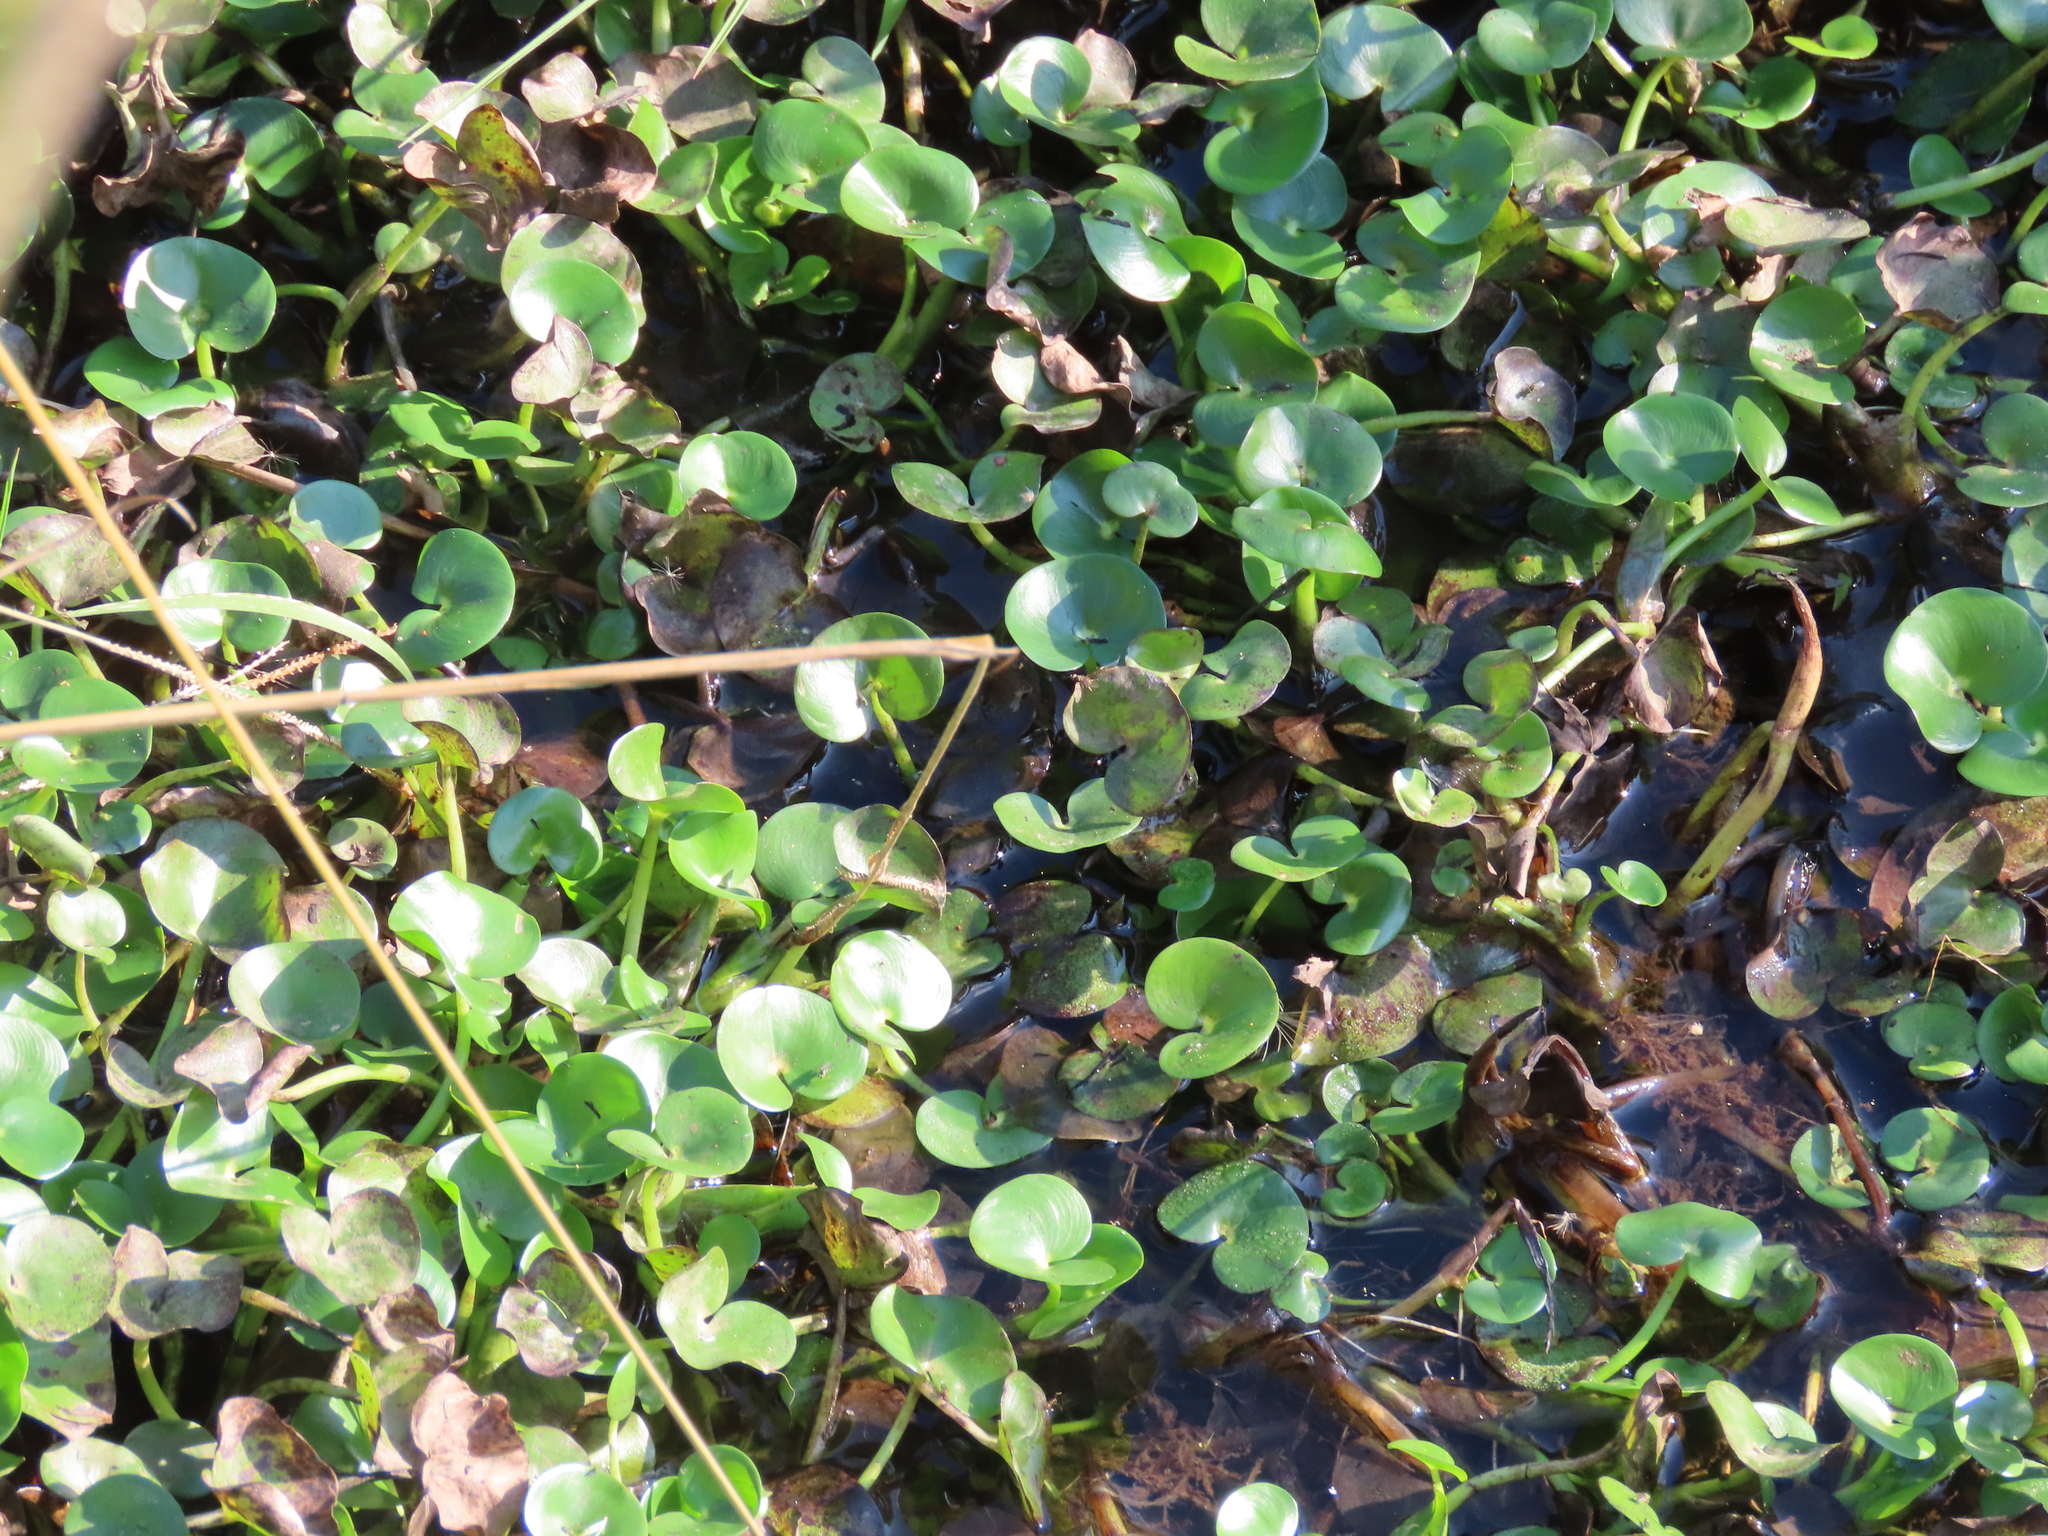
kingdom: Plantae
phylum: Tracheophyta
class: Liliopsida
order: Commelinales
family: Pontederiaceae
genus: Heteranthera
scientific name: Heteranthera reniformis
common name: Kidneyleaf mudplantain
